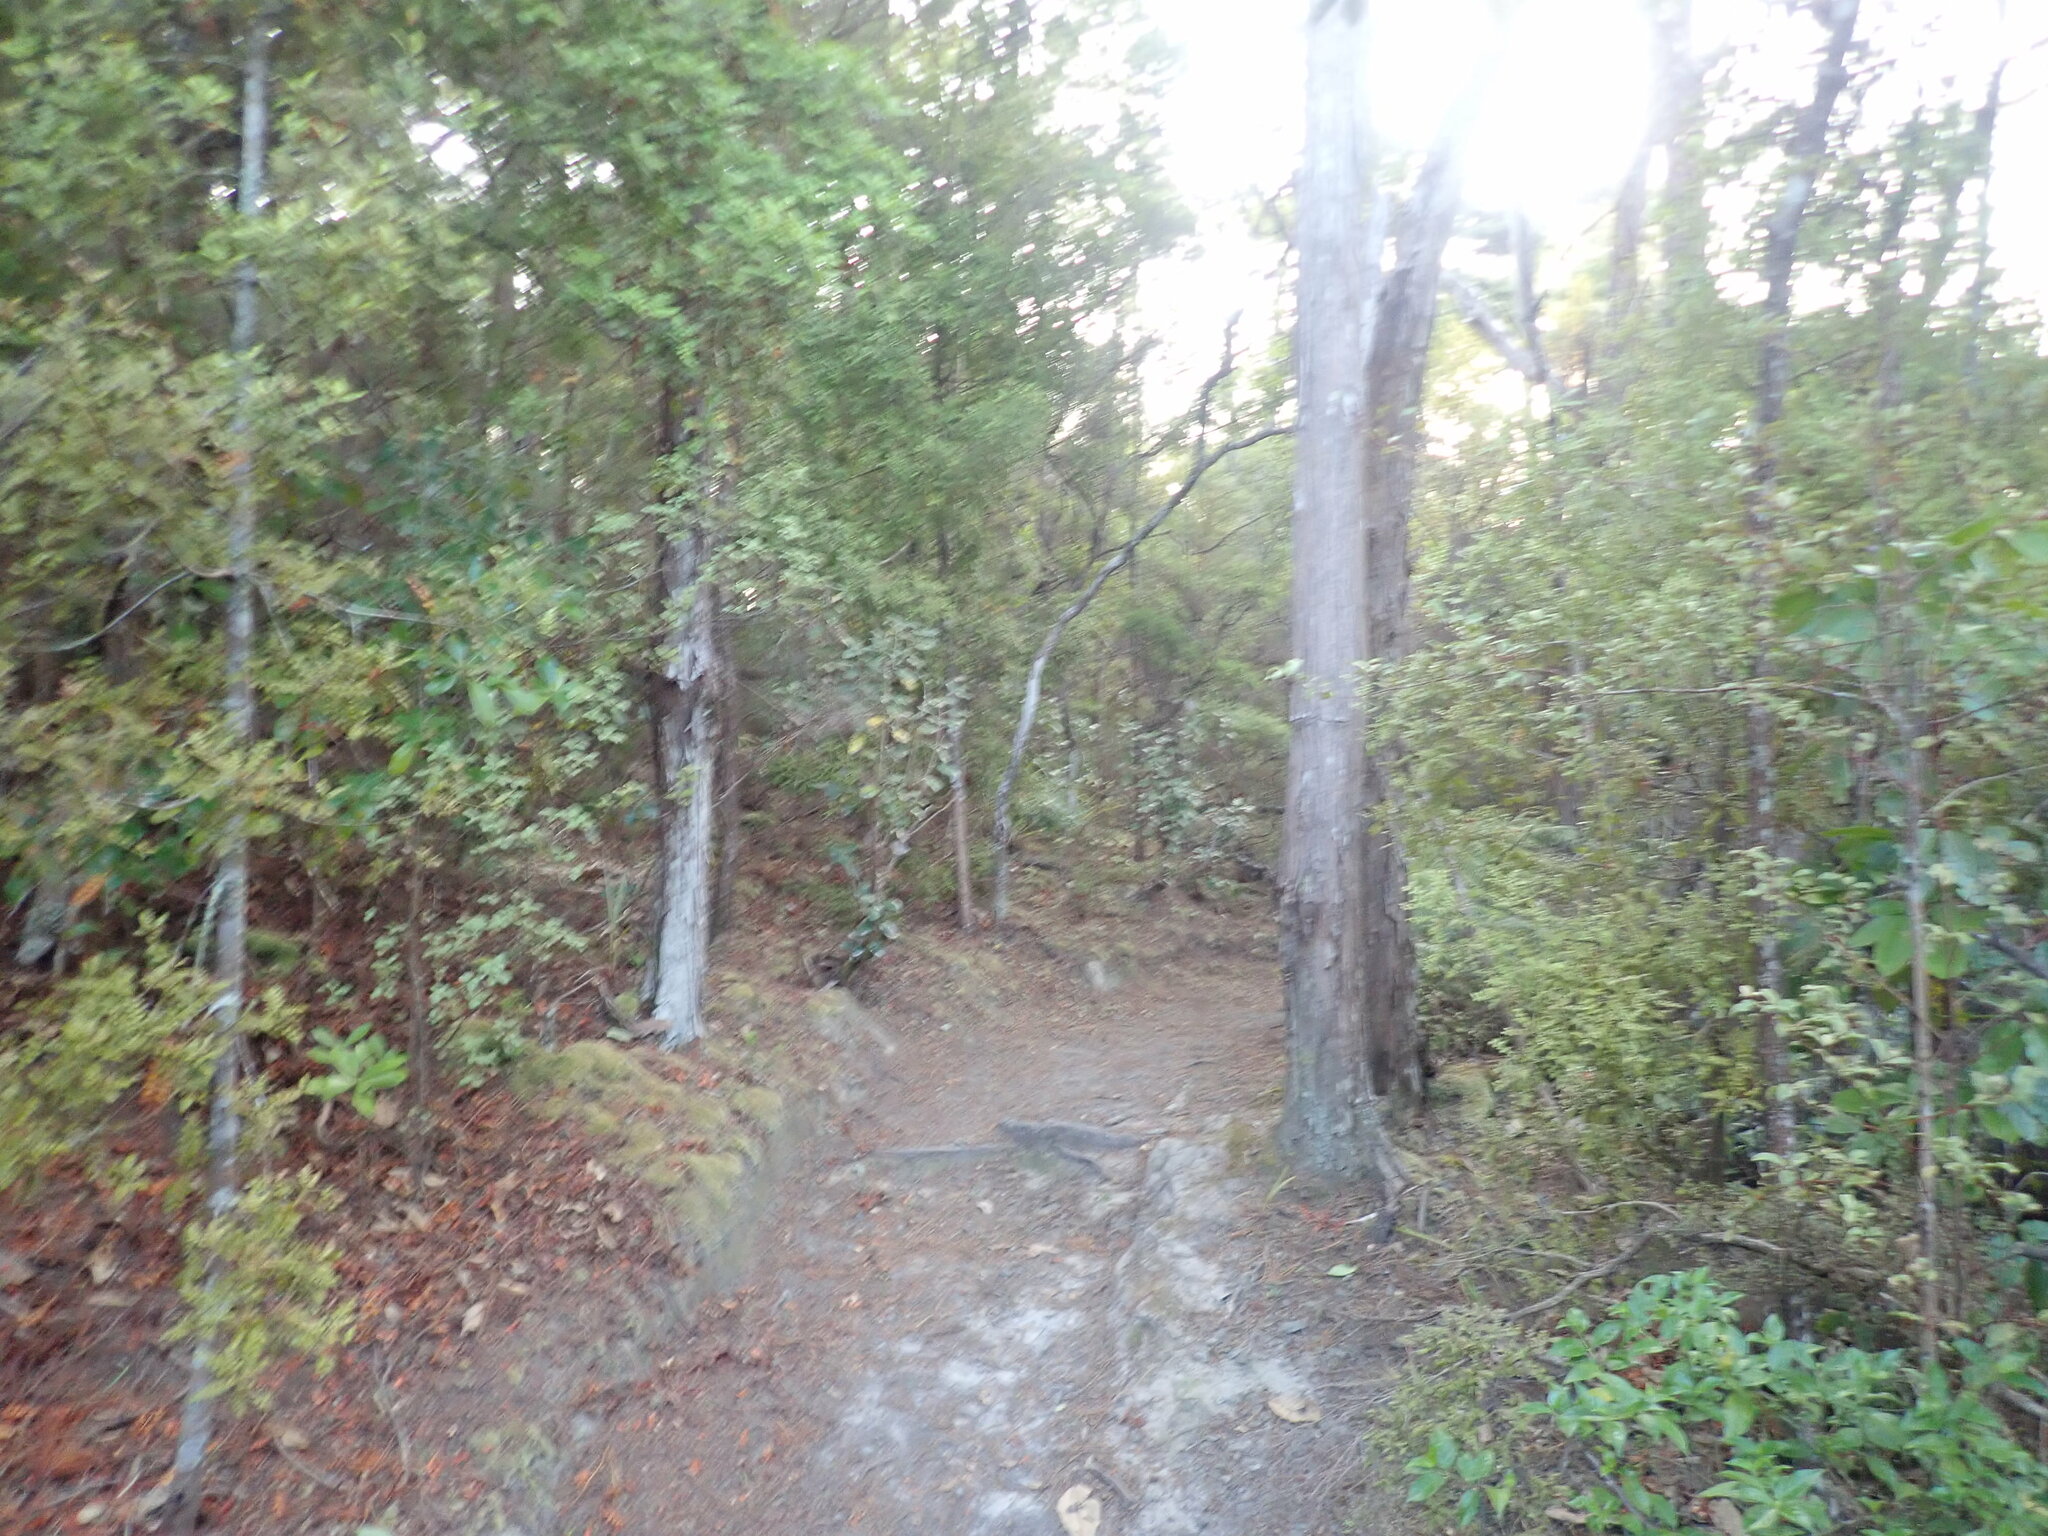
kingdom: Plantae
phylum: Tracheophyta
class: Pinopsida
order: Pinales
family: Phyllocladaceae
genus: Phyllocladus
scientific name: Phyllocladus trichomanoides
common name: Celery pine
